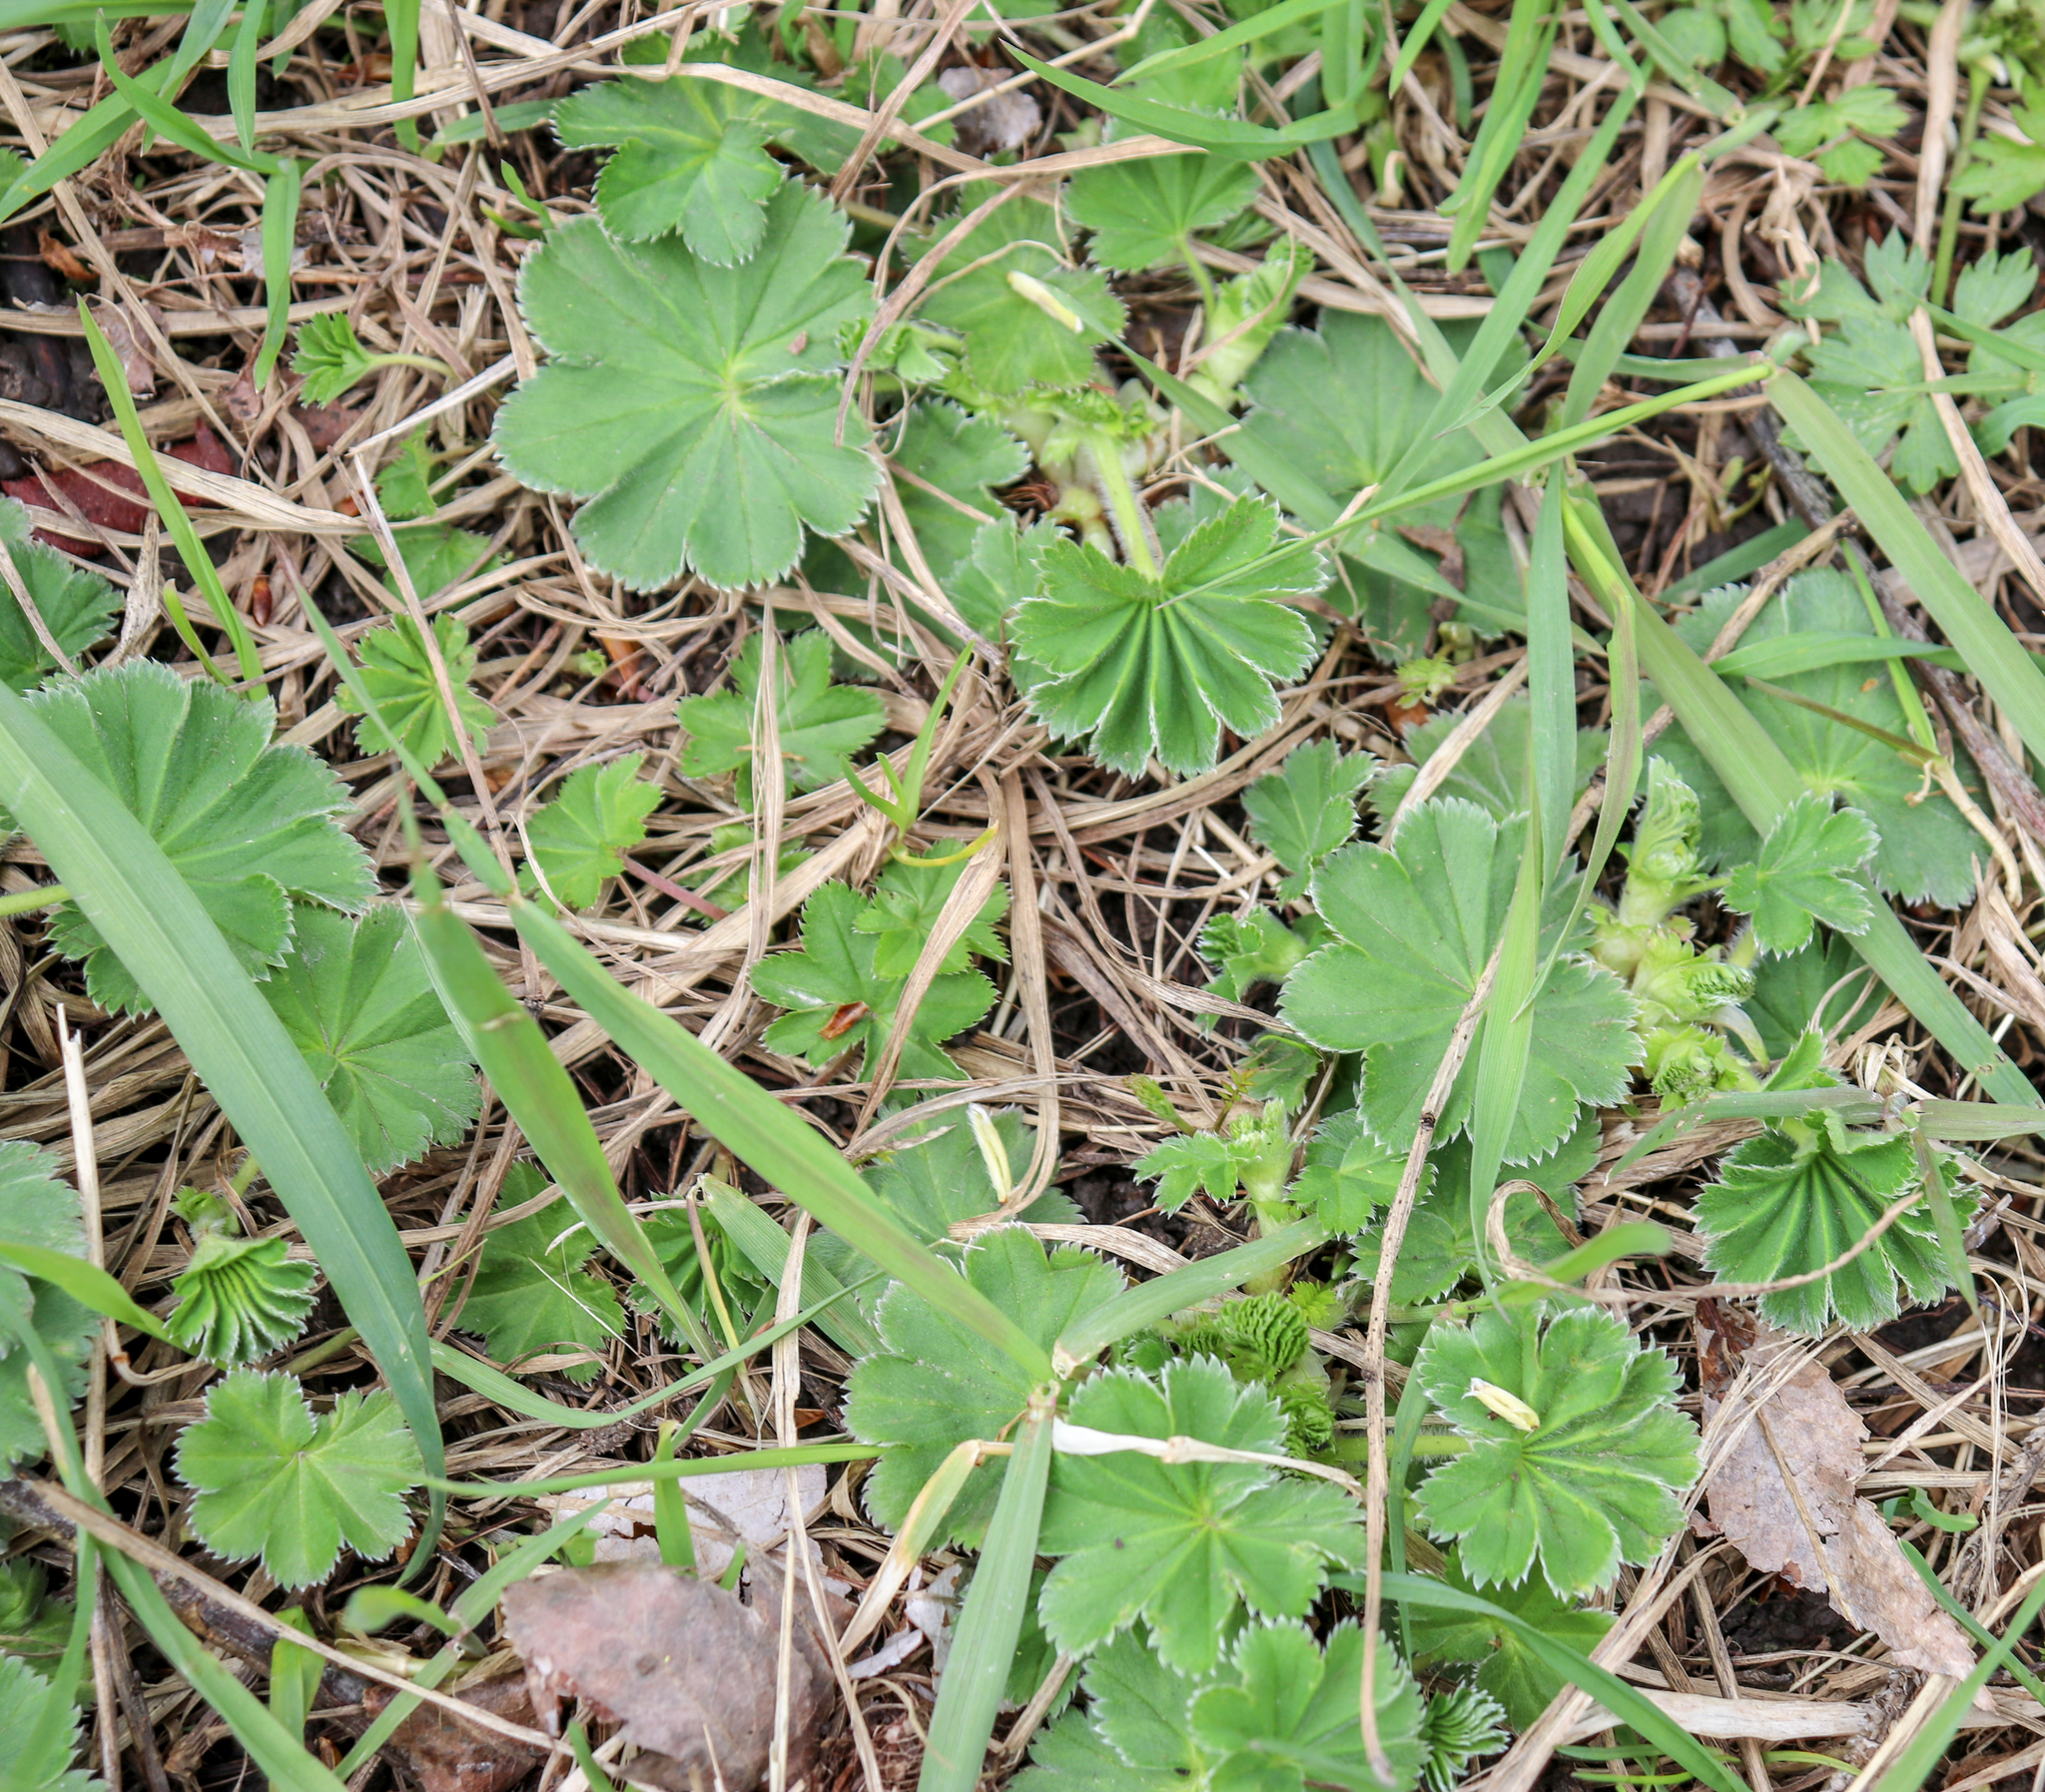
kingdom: Plantae
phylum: Tracheophyta
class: Magnoliopsida
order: Rosales
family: Rosaceae
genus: Alchemilla
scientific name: Alchemilla
